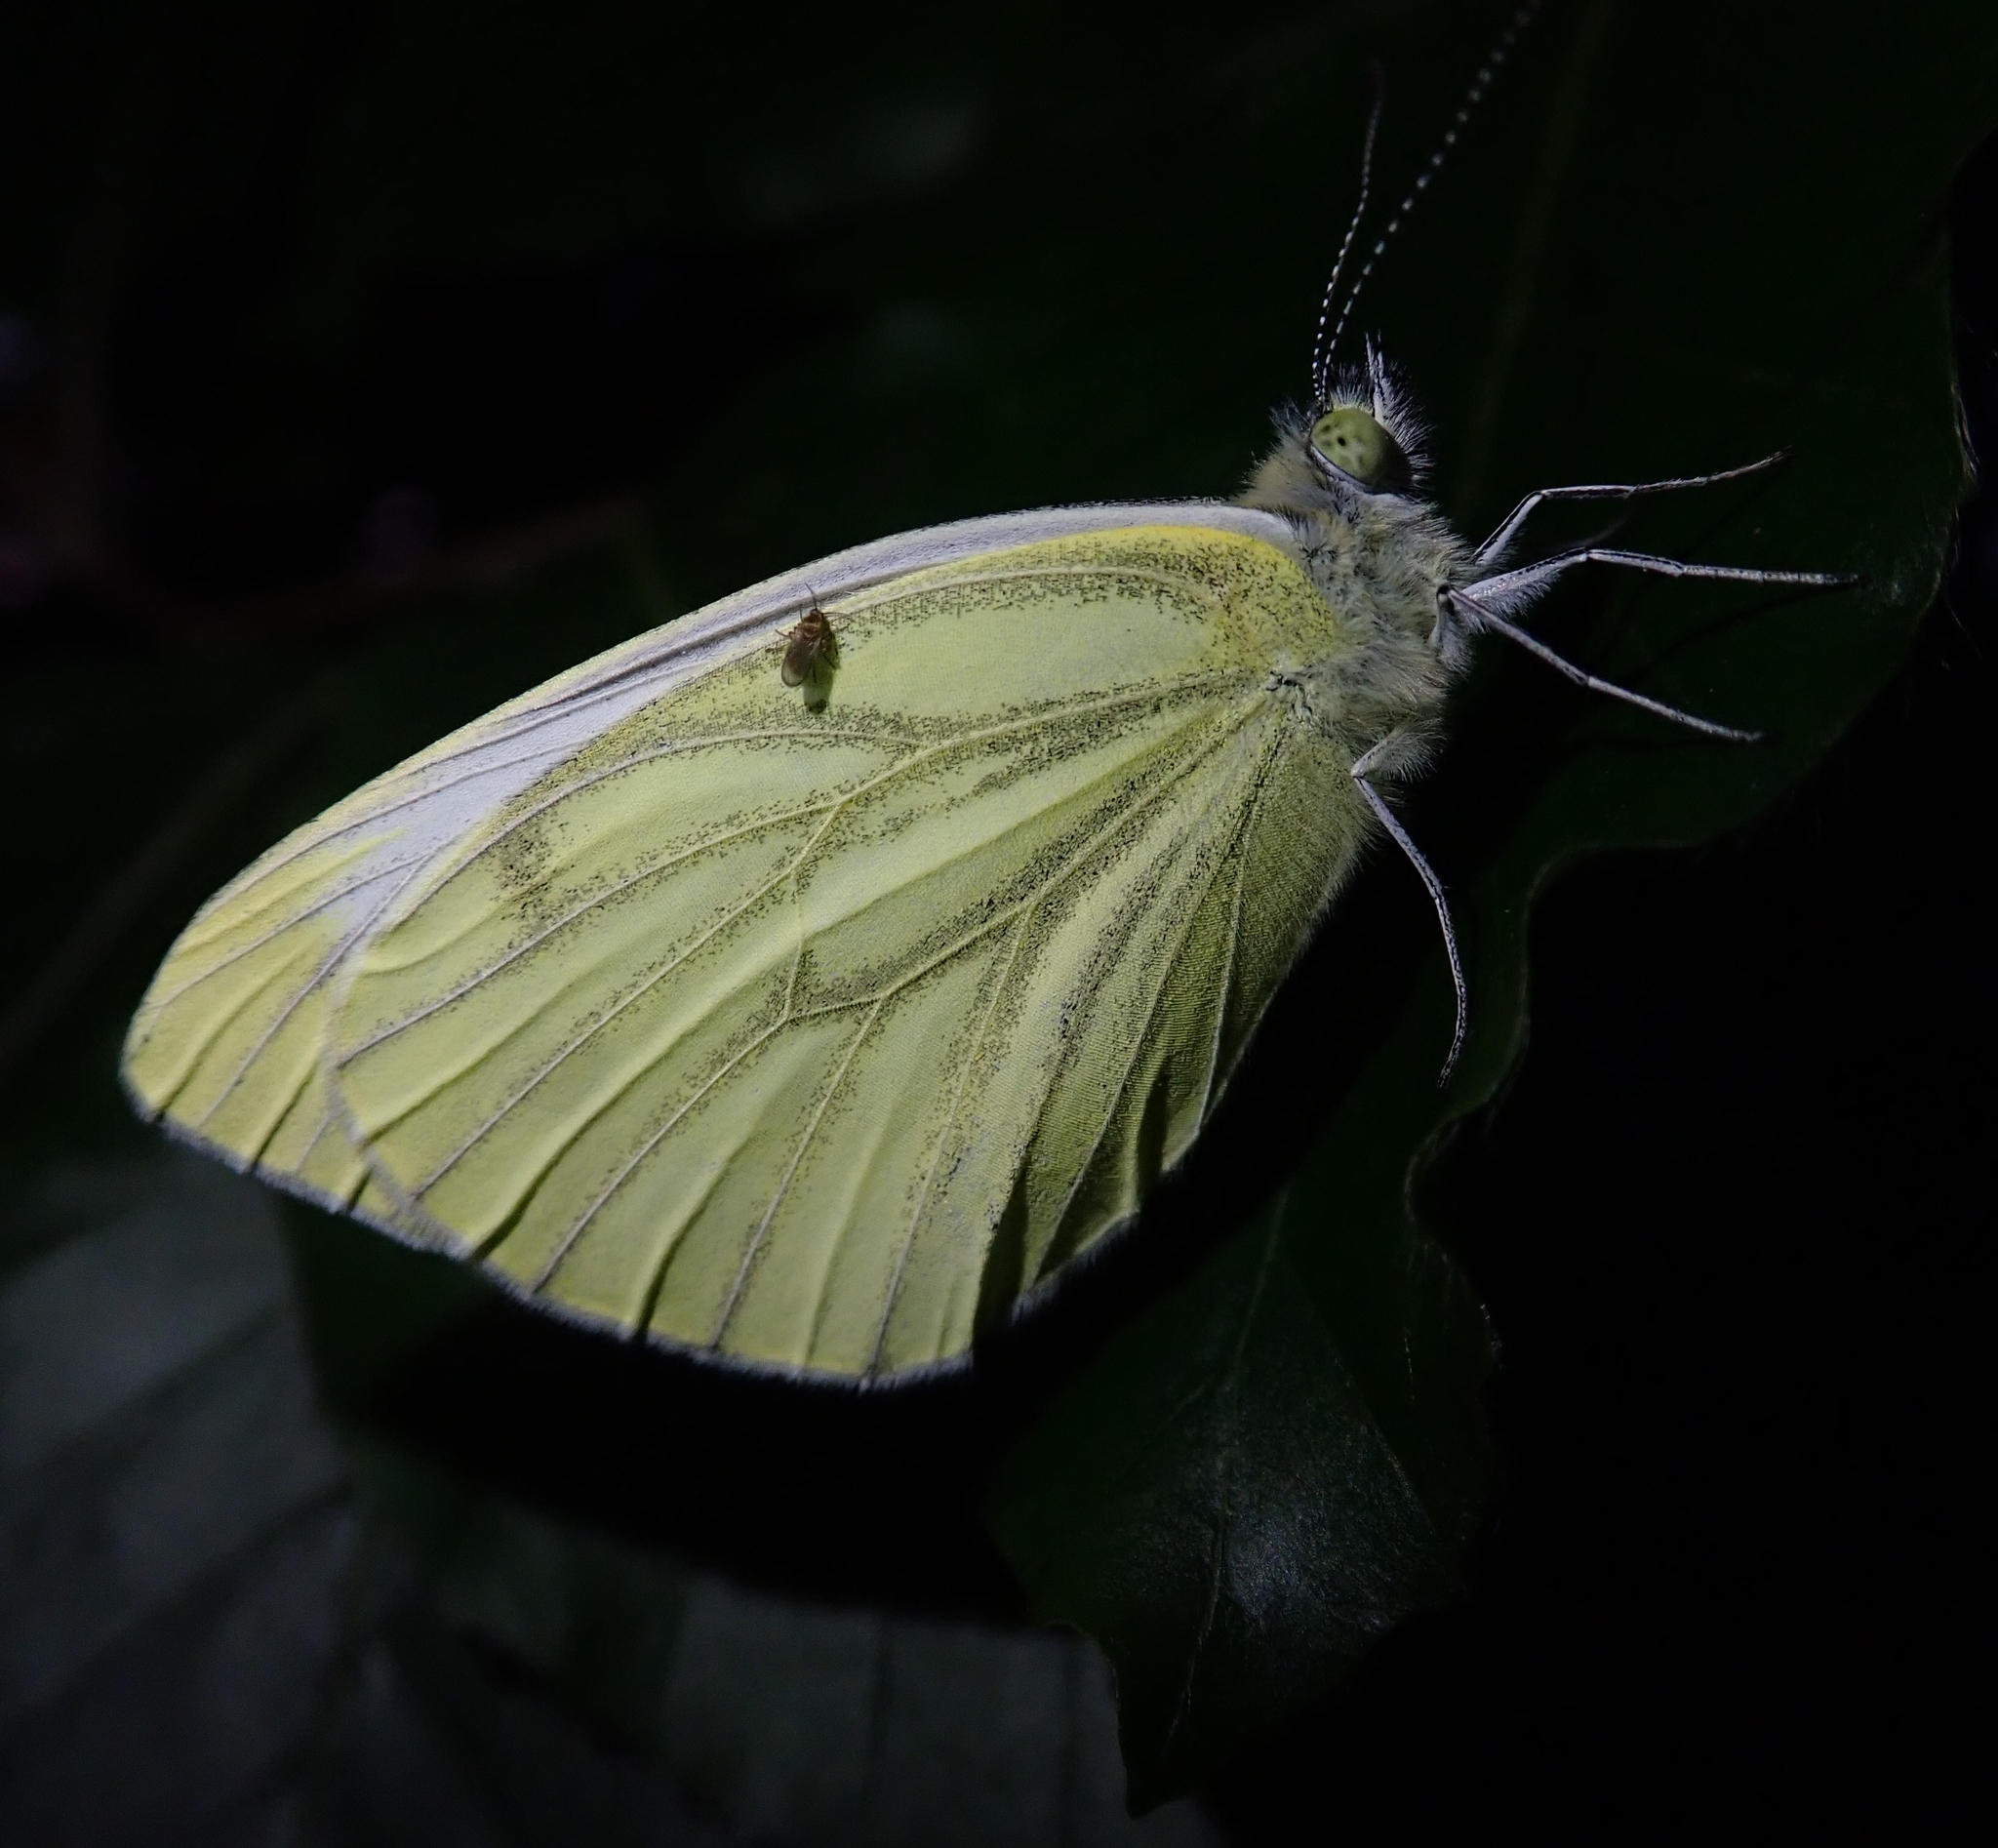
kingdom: Animalia
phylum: Arthropoda
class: Insecta
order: Lepidoptera
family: Pieridae
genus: Pieris
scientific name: Pieris napi
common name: Green-veined white
